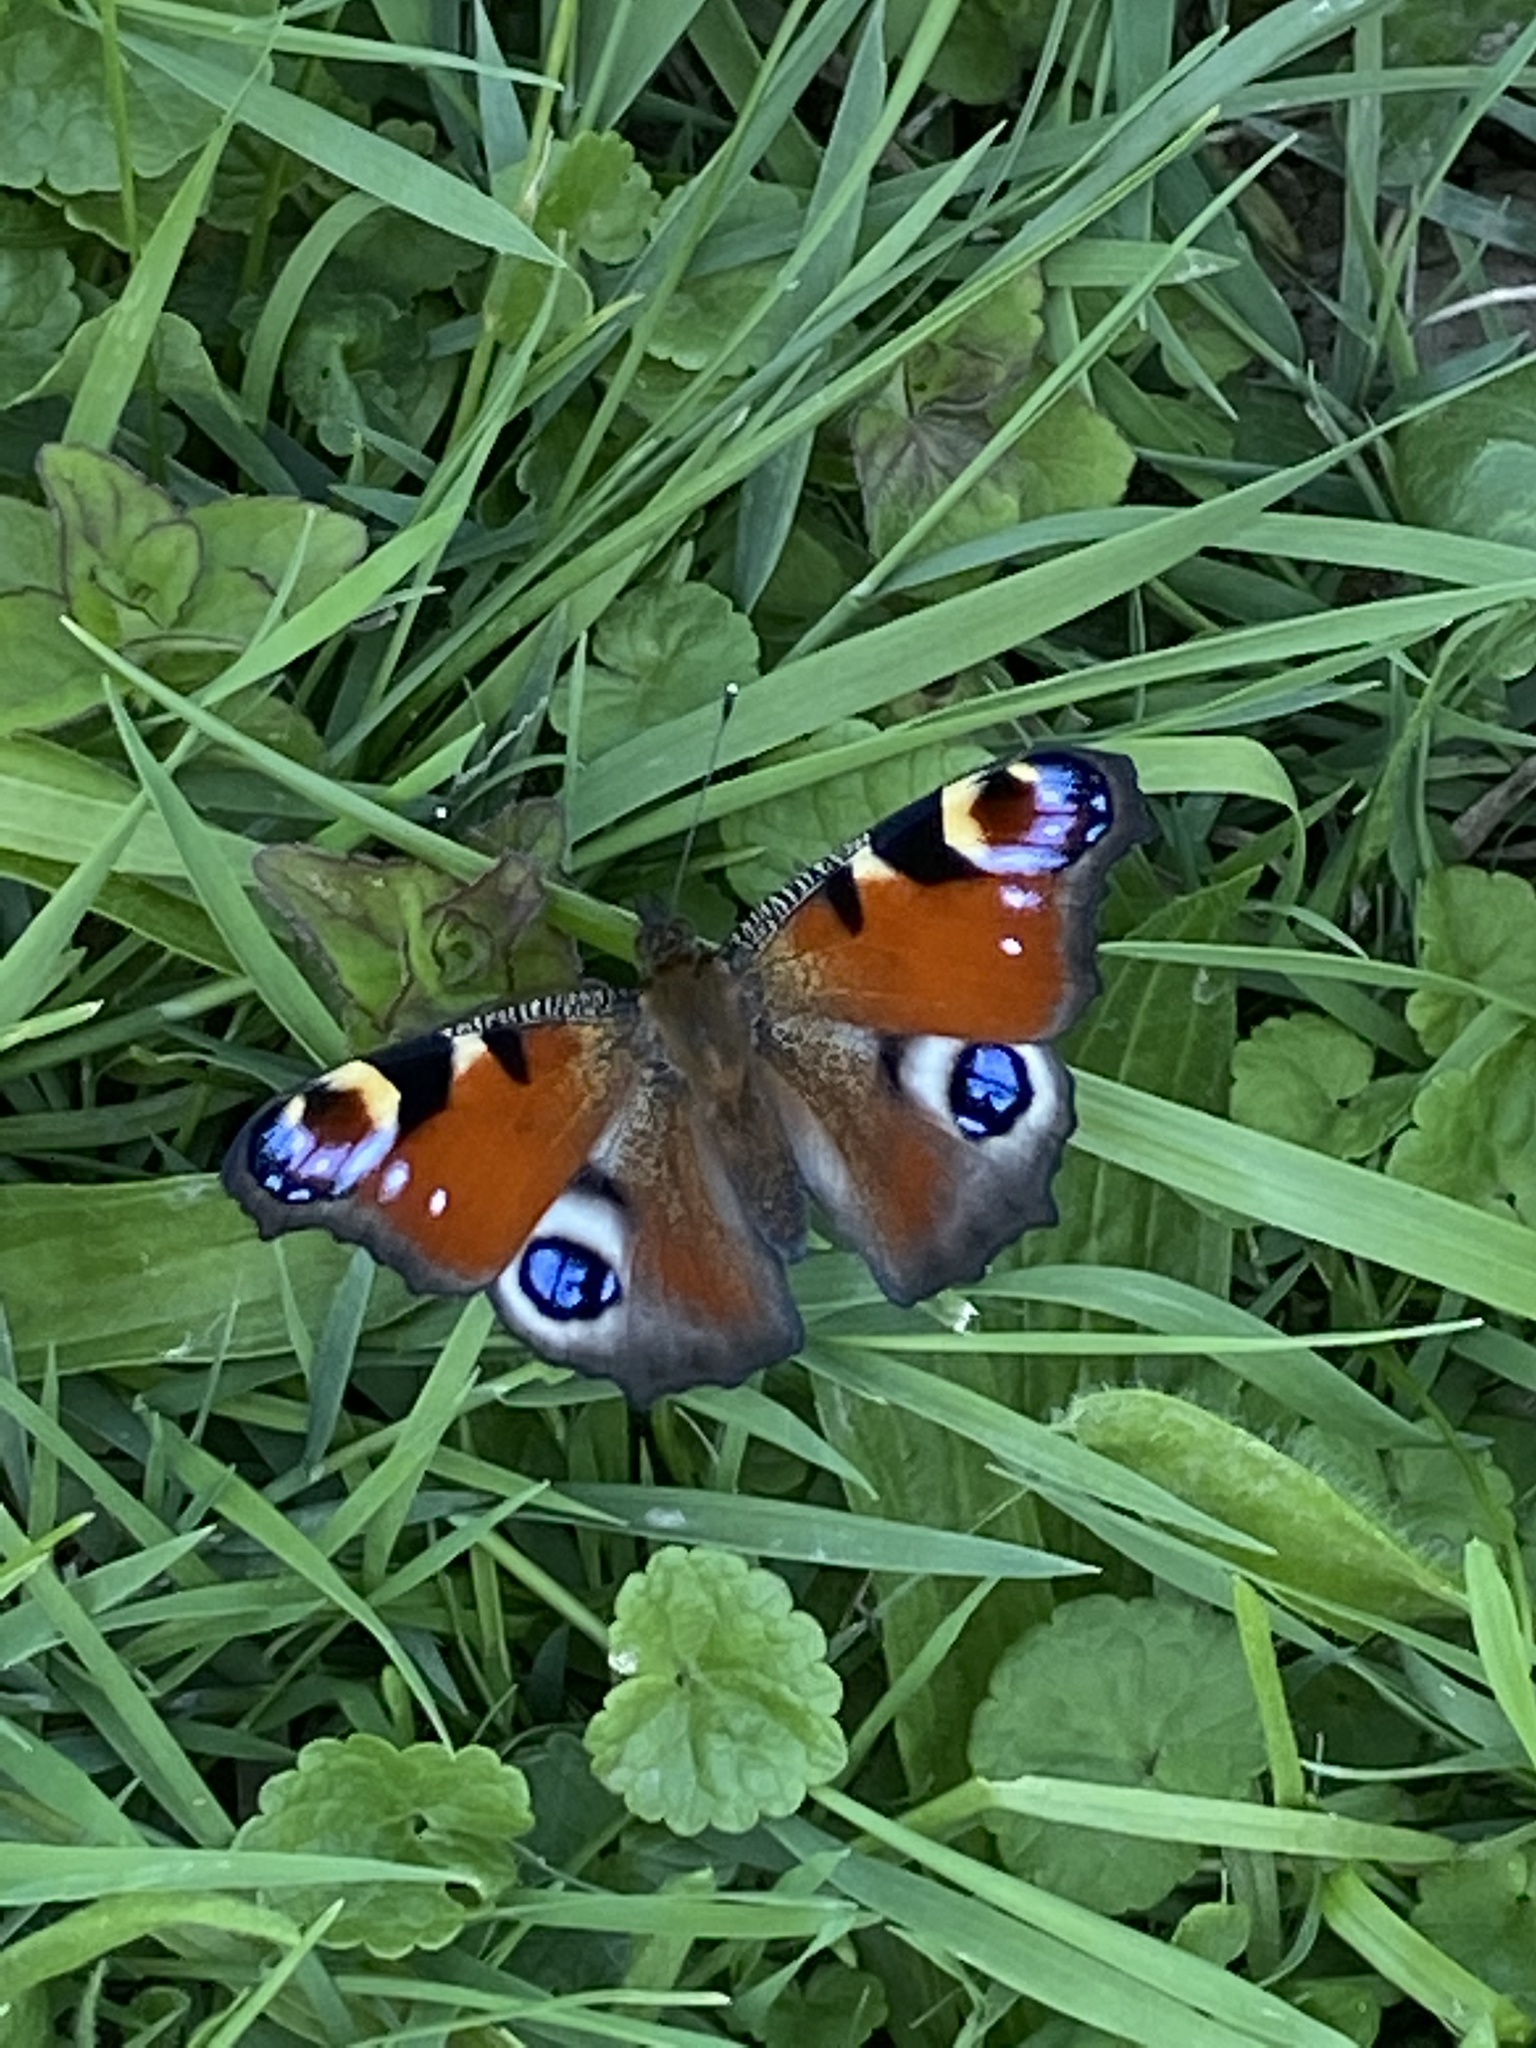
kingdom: Animalia
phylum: Arthropoda
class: Insecta
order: Lepidoptera
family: Nymphalidae
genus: Aglais
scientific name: Aglais io
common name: Peacock
